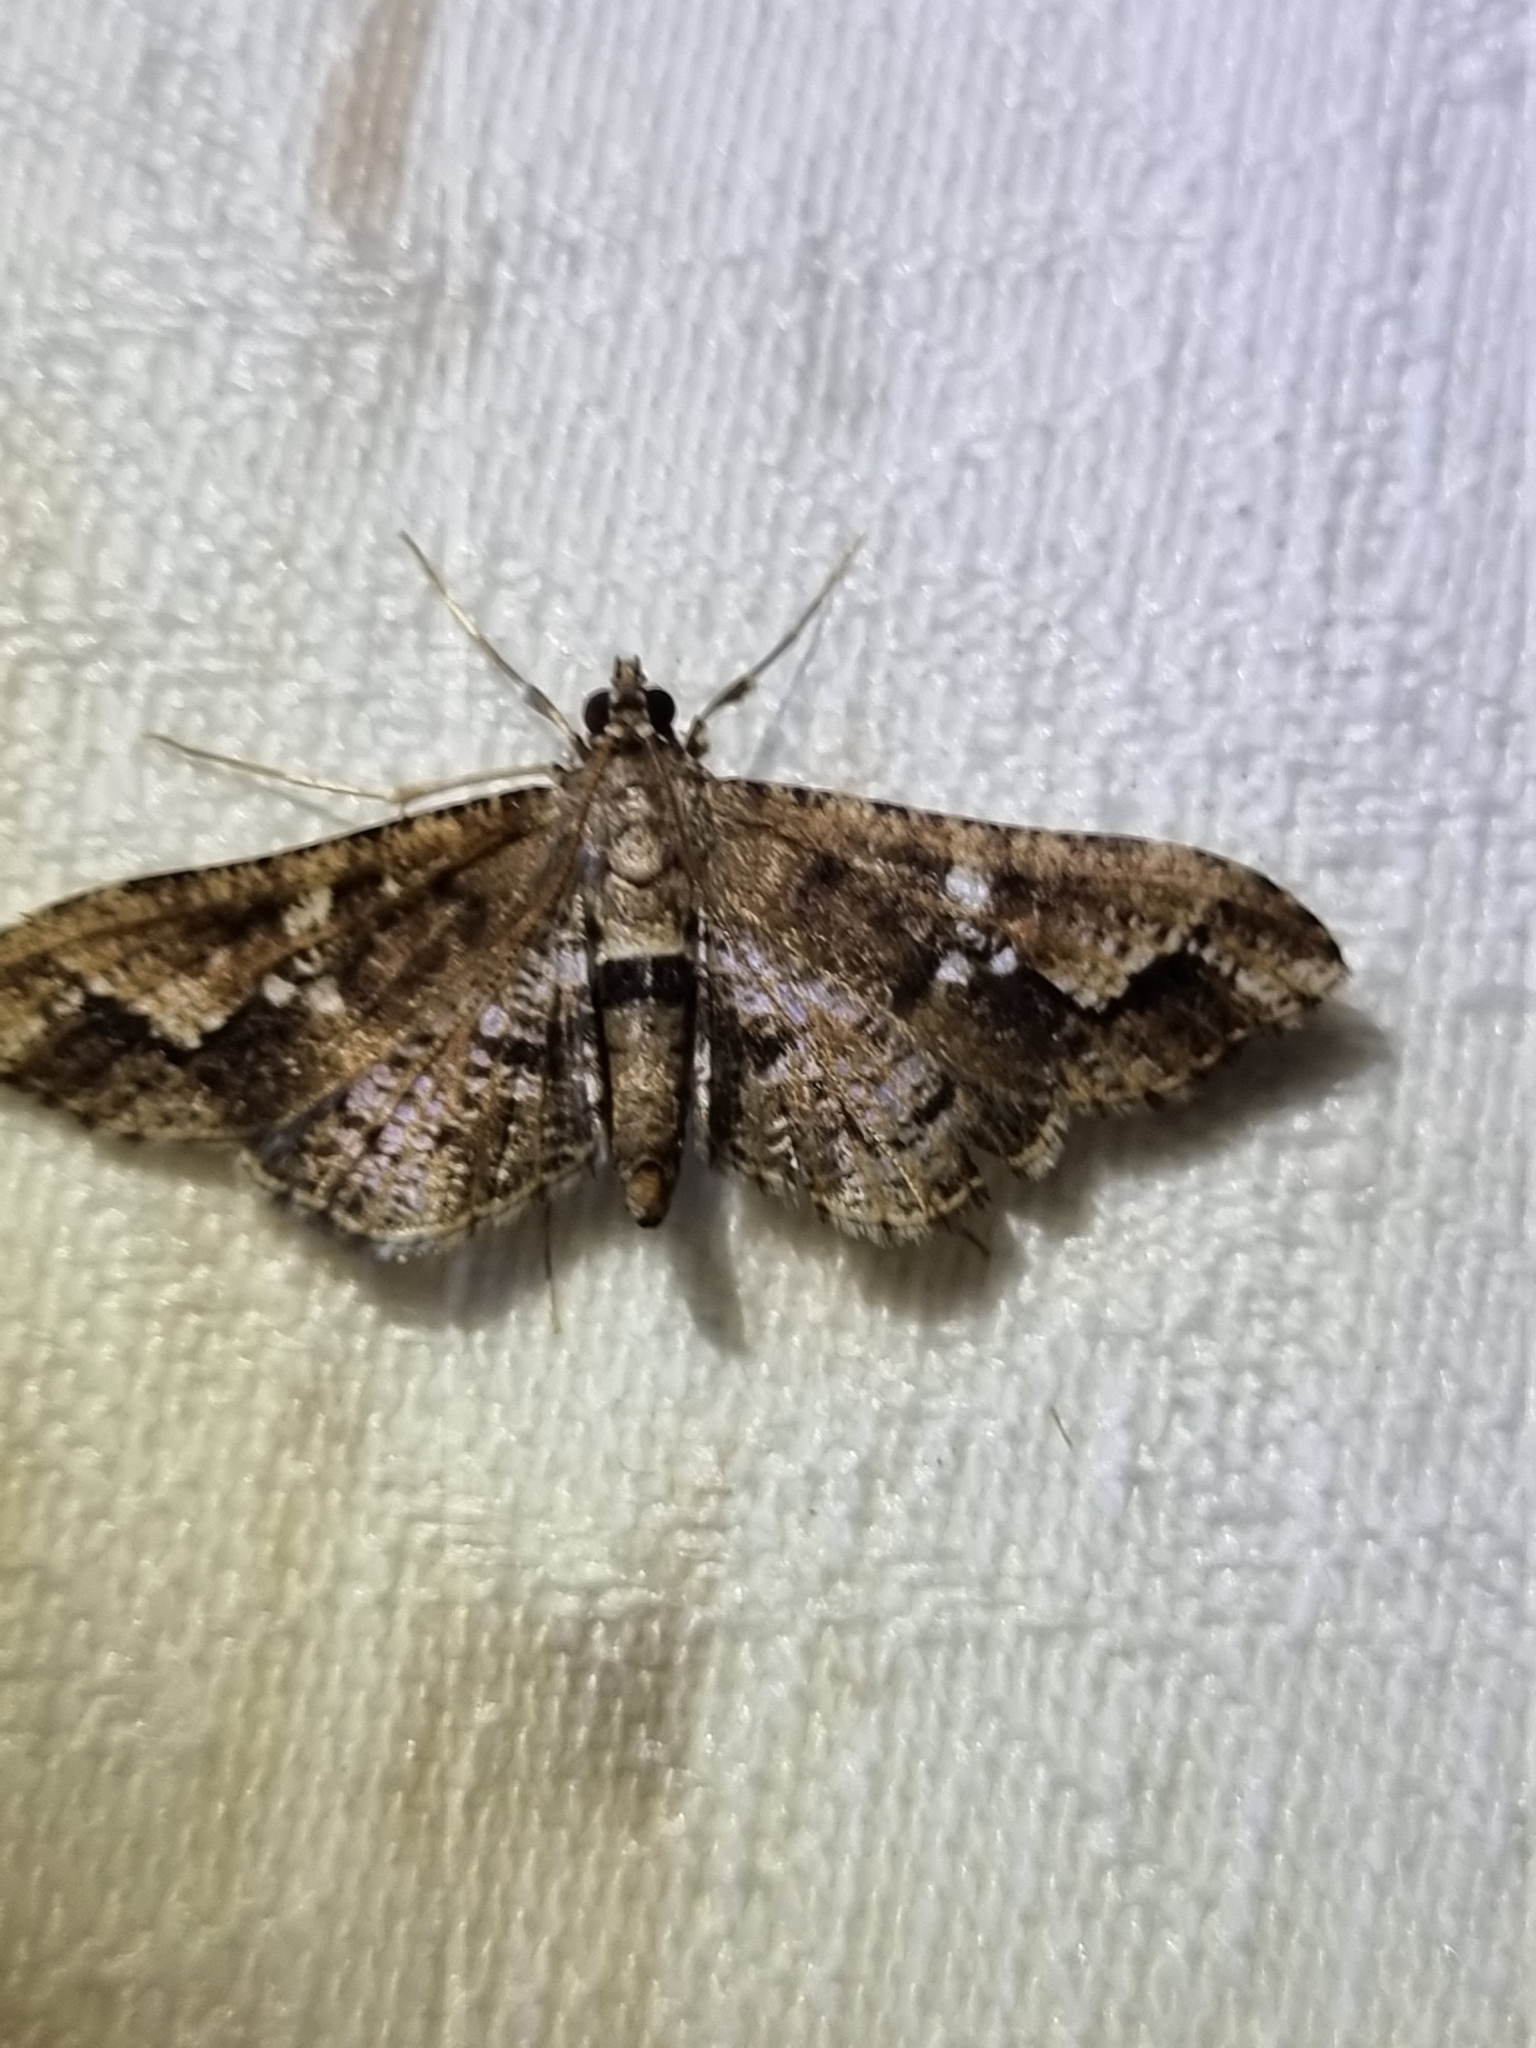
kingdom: Animalia
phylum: Arthropoda
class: Insecta
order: Lepidoptera
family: Crambidae
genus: Merodictya
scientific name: Merodictya marmorata
